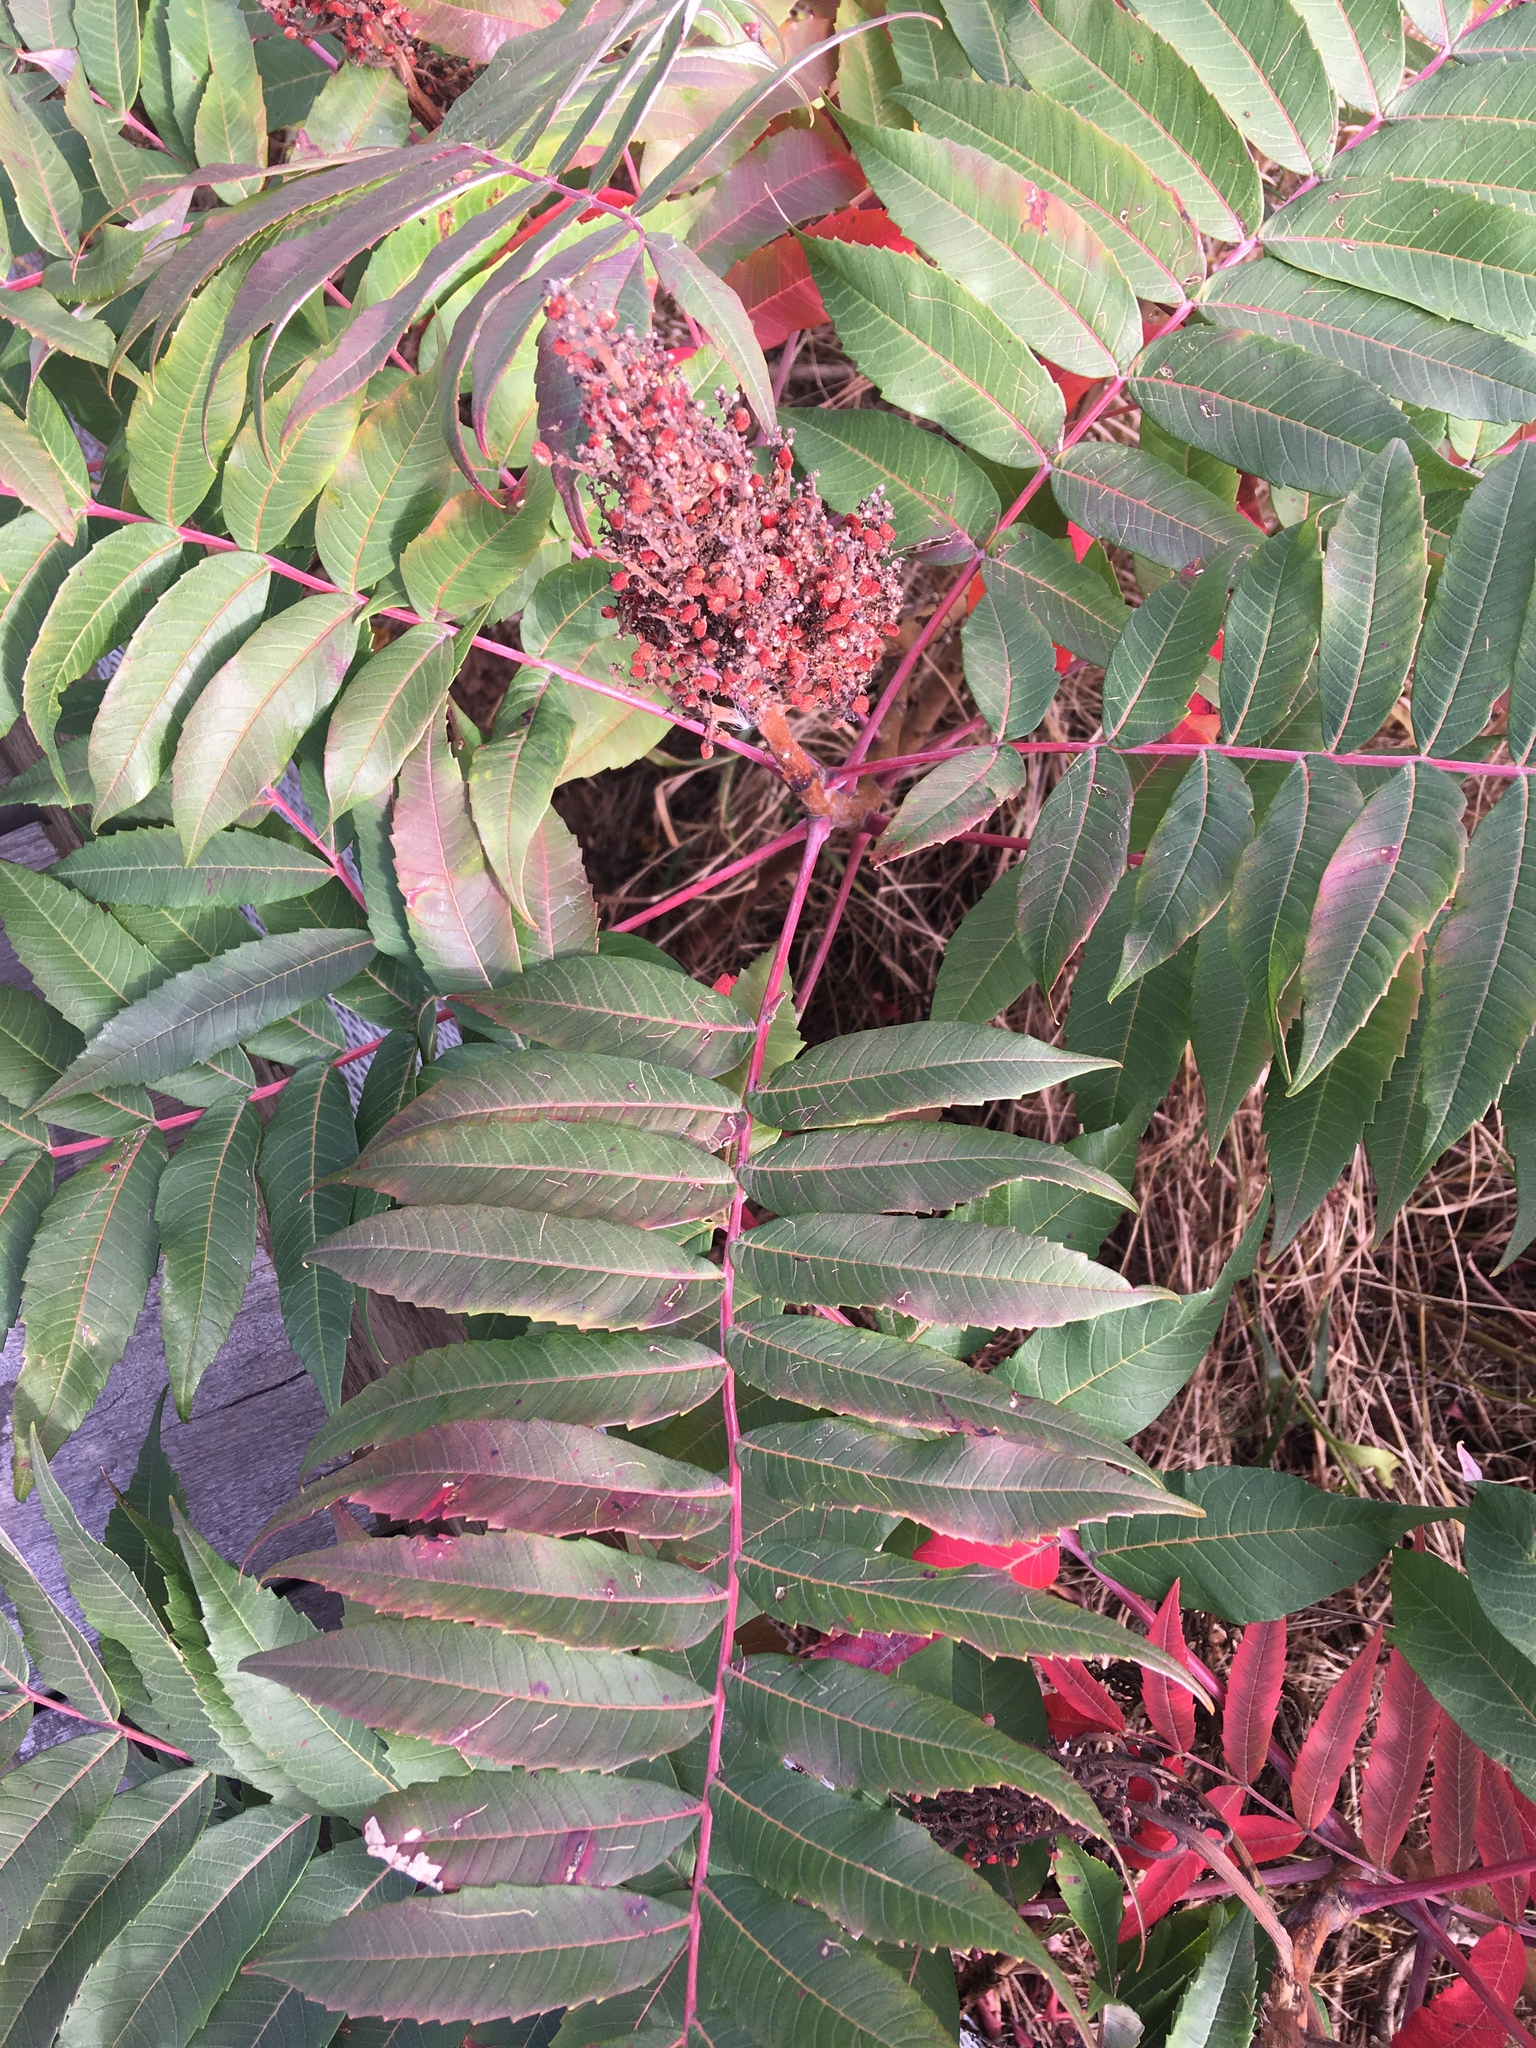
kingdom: Plantae
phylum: Tracheophyta
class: Magnoliopsida
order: Sapindales
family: Anacardiaceae
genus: Rhus
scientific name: Rhus glabra
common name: Scarlet sumac
